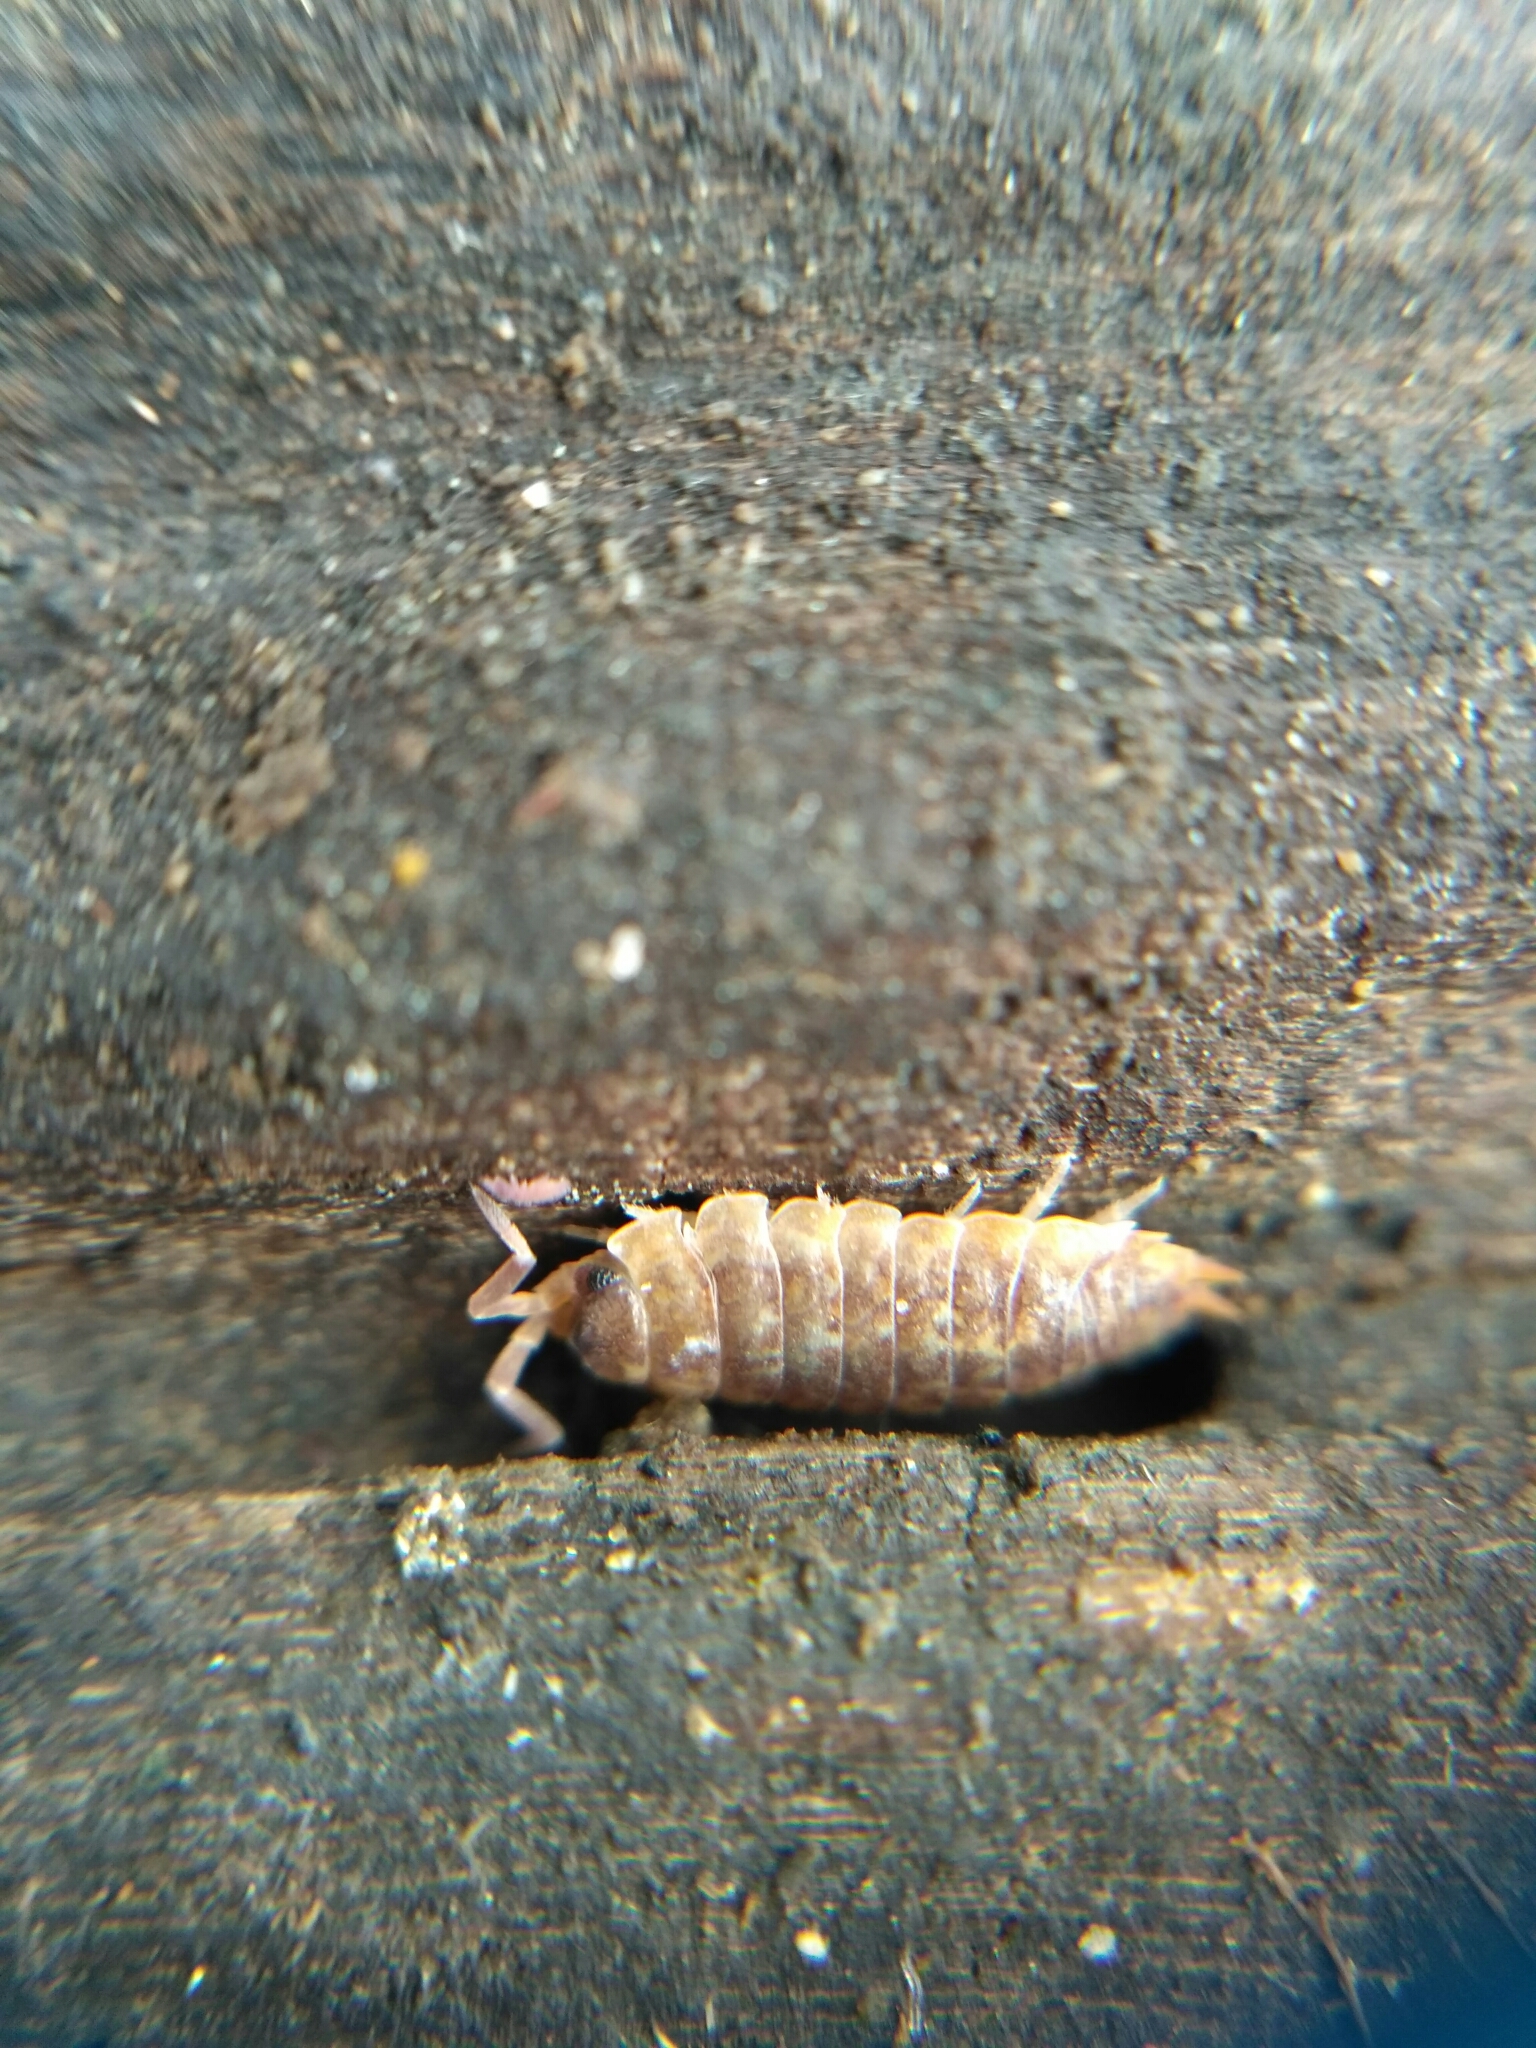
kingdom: Animalia
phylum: Arthropoda
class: Malacostraca
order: Isopoda
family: Porcellionidae
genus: Porcellio
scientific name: Porcellio scaber
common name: Common rough woodlouse
